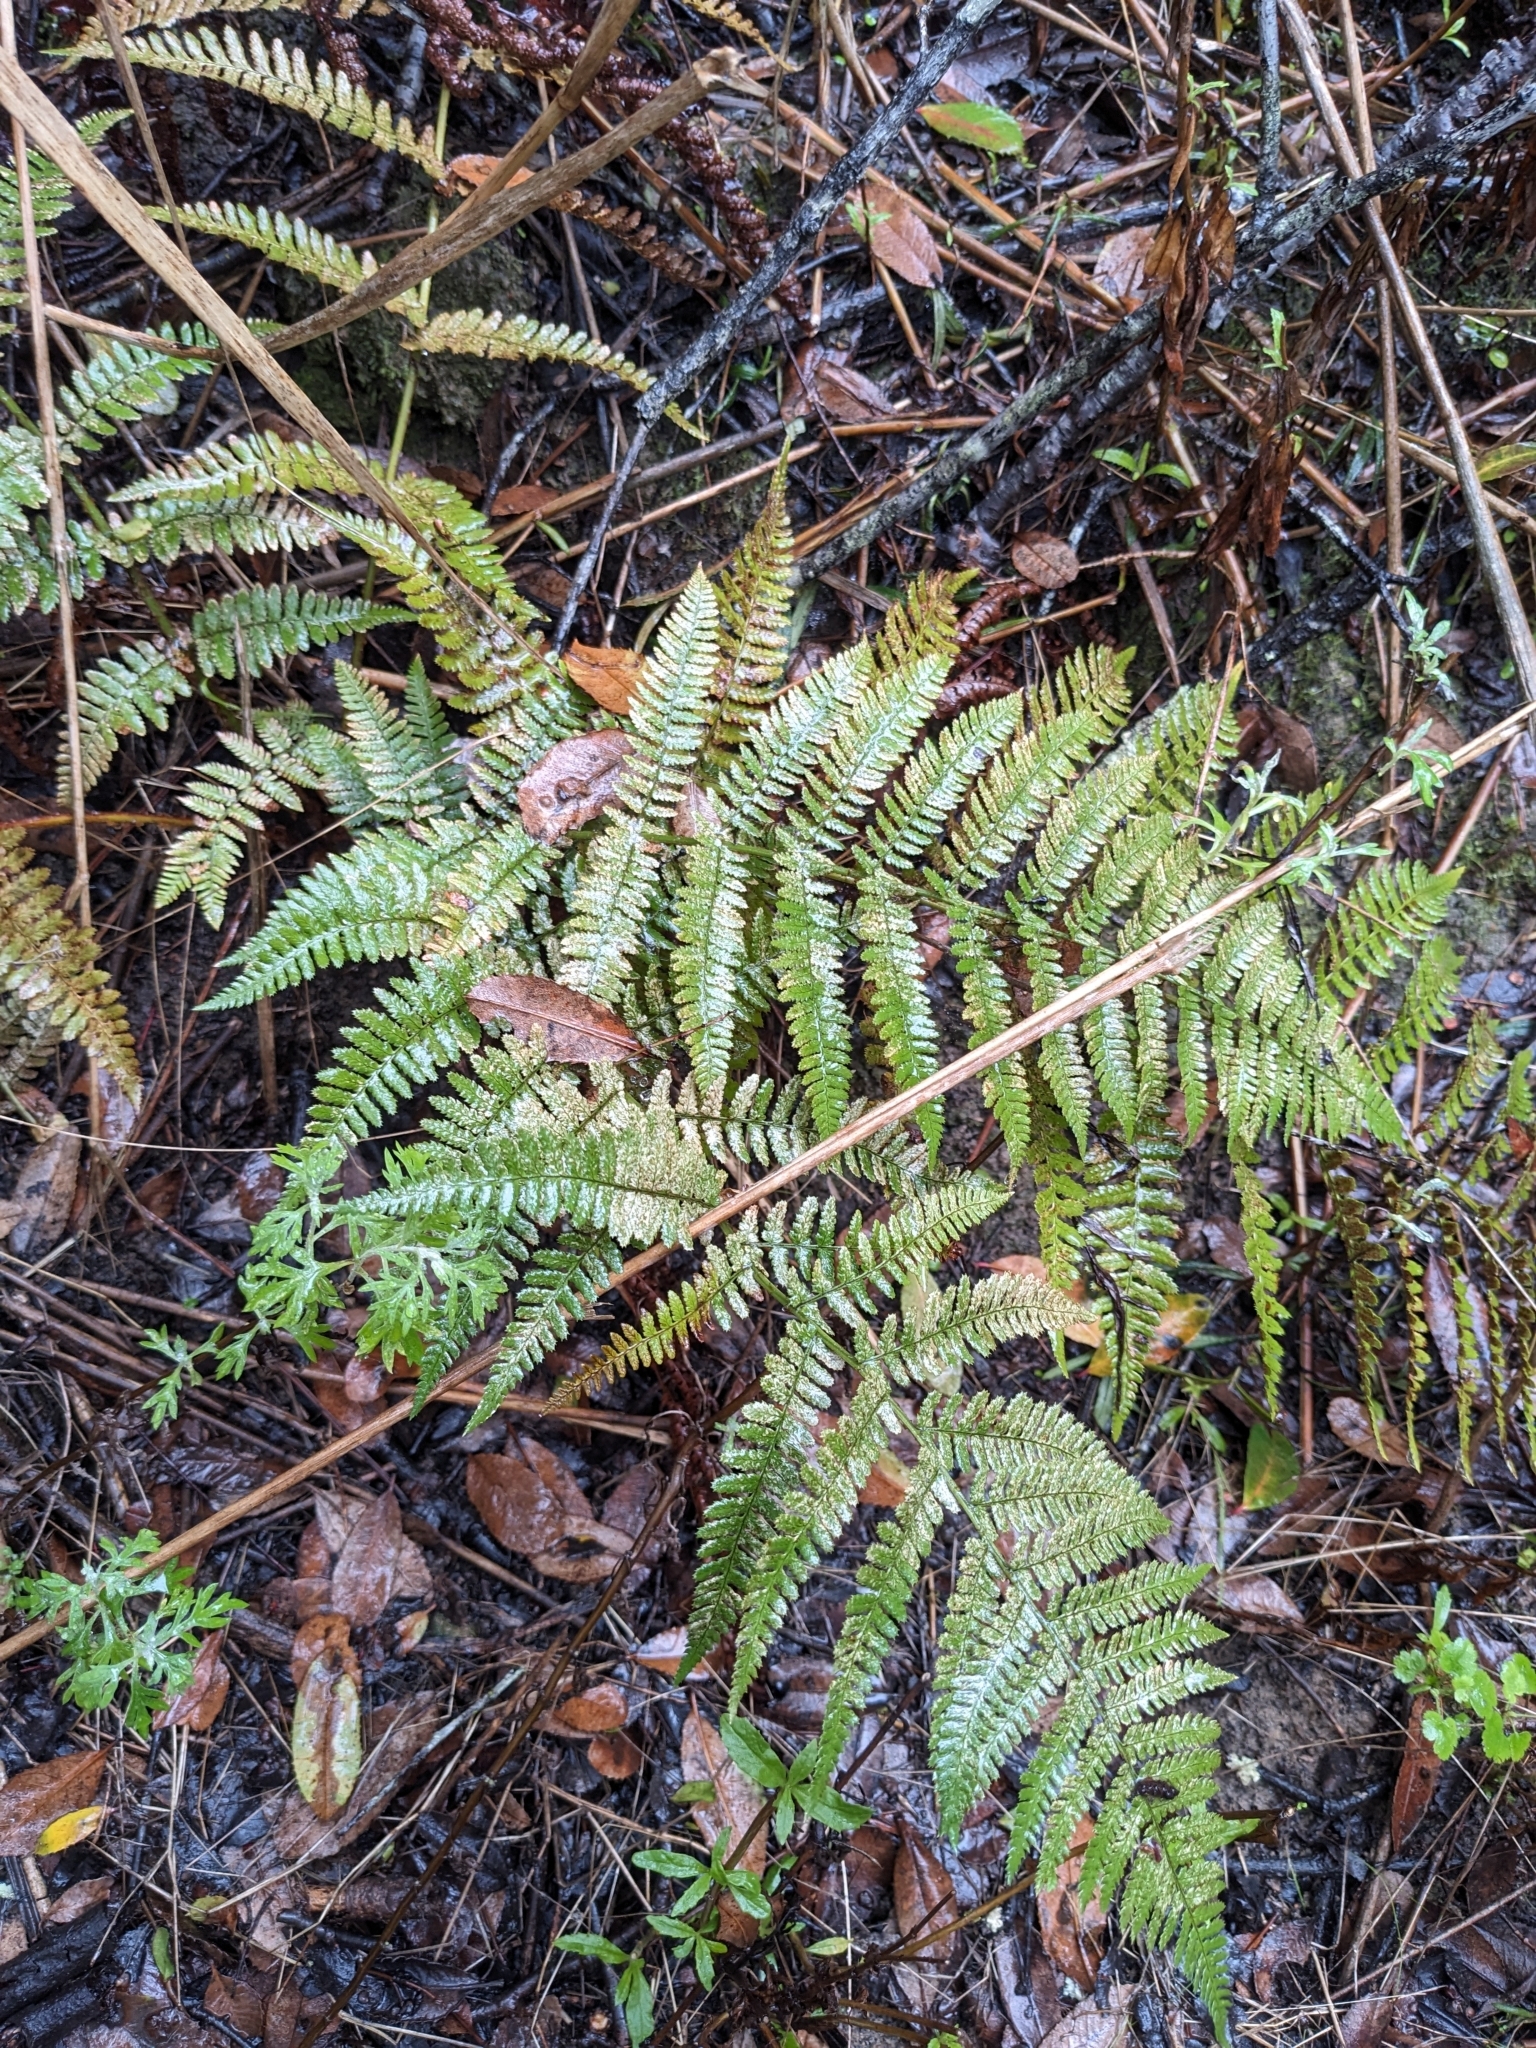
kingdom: Plantae
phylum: Tracheophyta
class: Polypodiopsida
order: Polypodiales
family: Dryopteridaceae
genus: Dryopteris
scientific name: Dryopteris arguta
